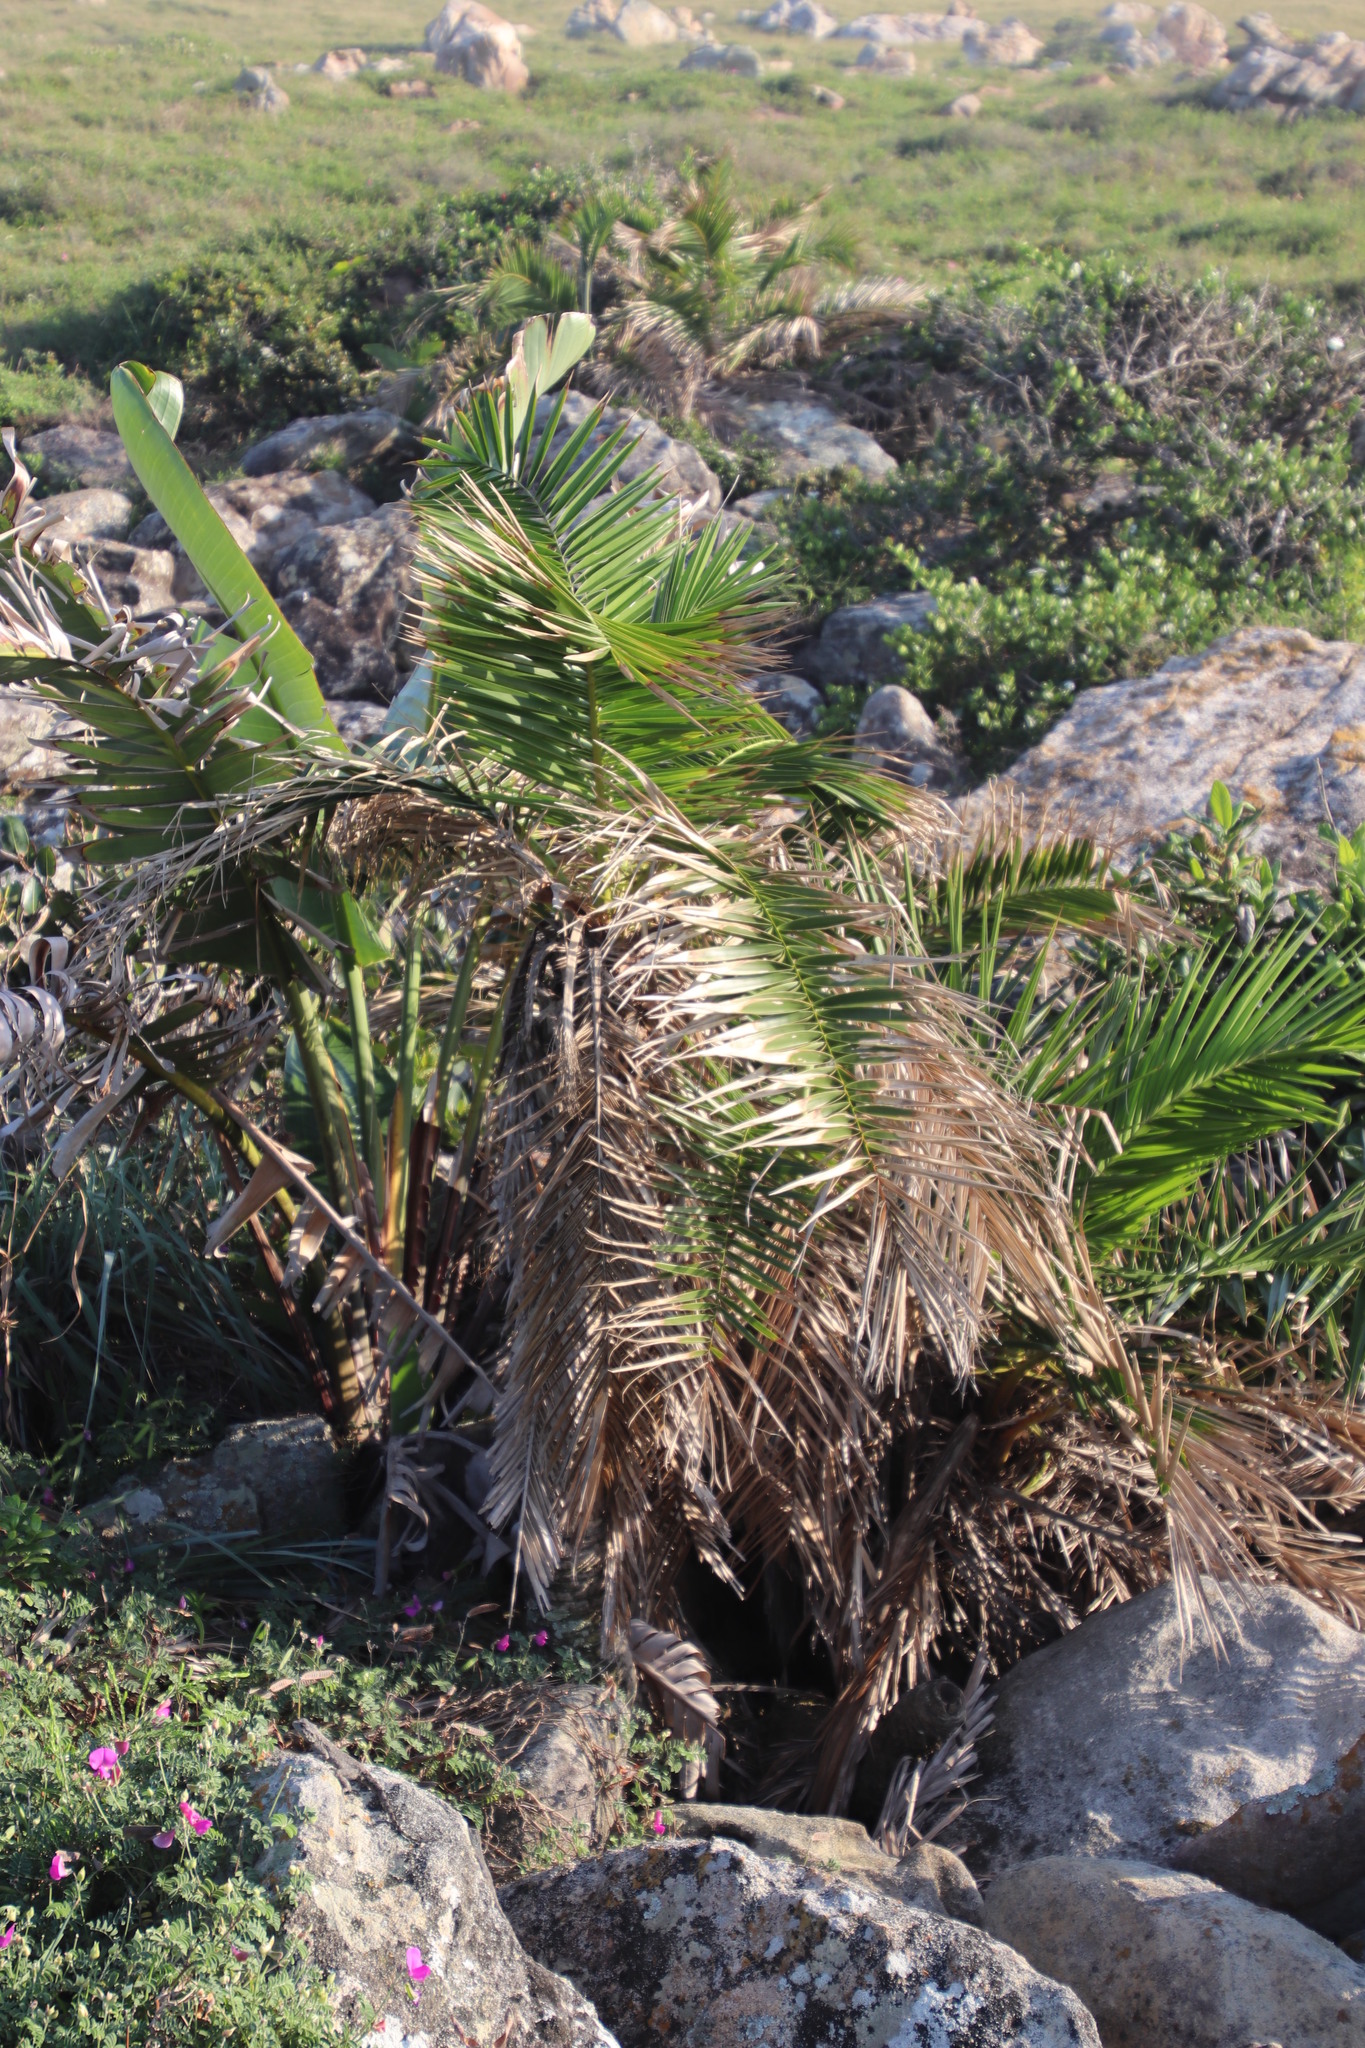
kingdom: Plantae
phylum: Tracheophyta
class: Liliopsida
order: Arecales
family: Arecaceae
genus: Phoenix
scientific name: Phoenix reclinata
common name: Senegal date palm
